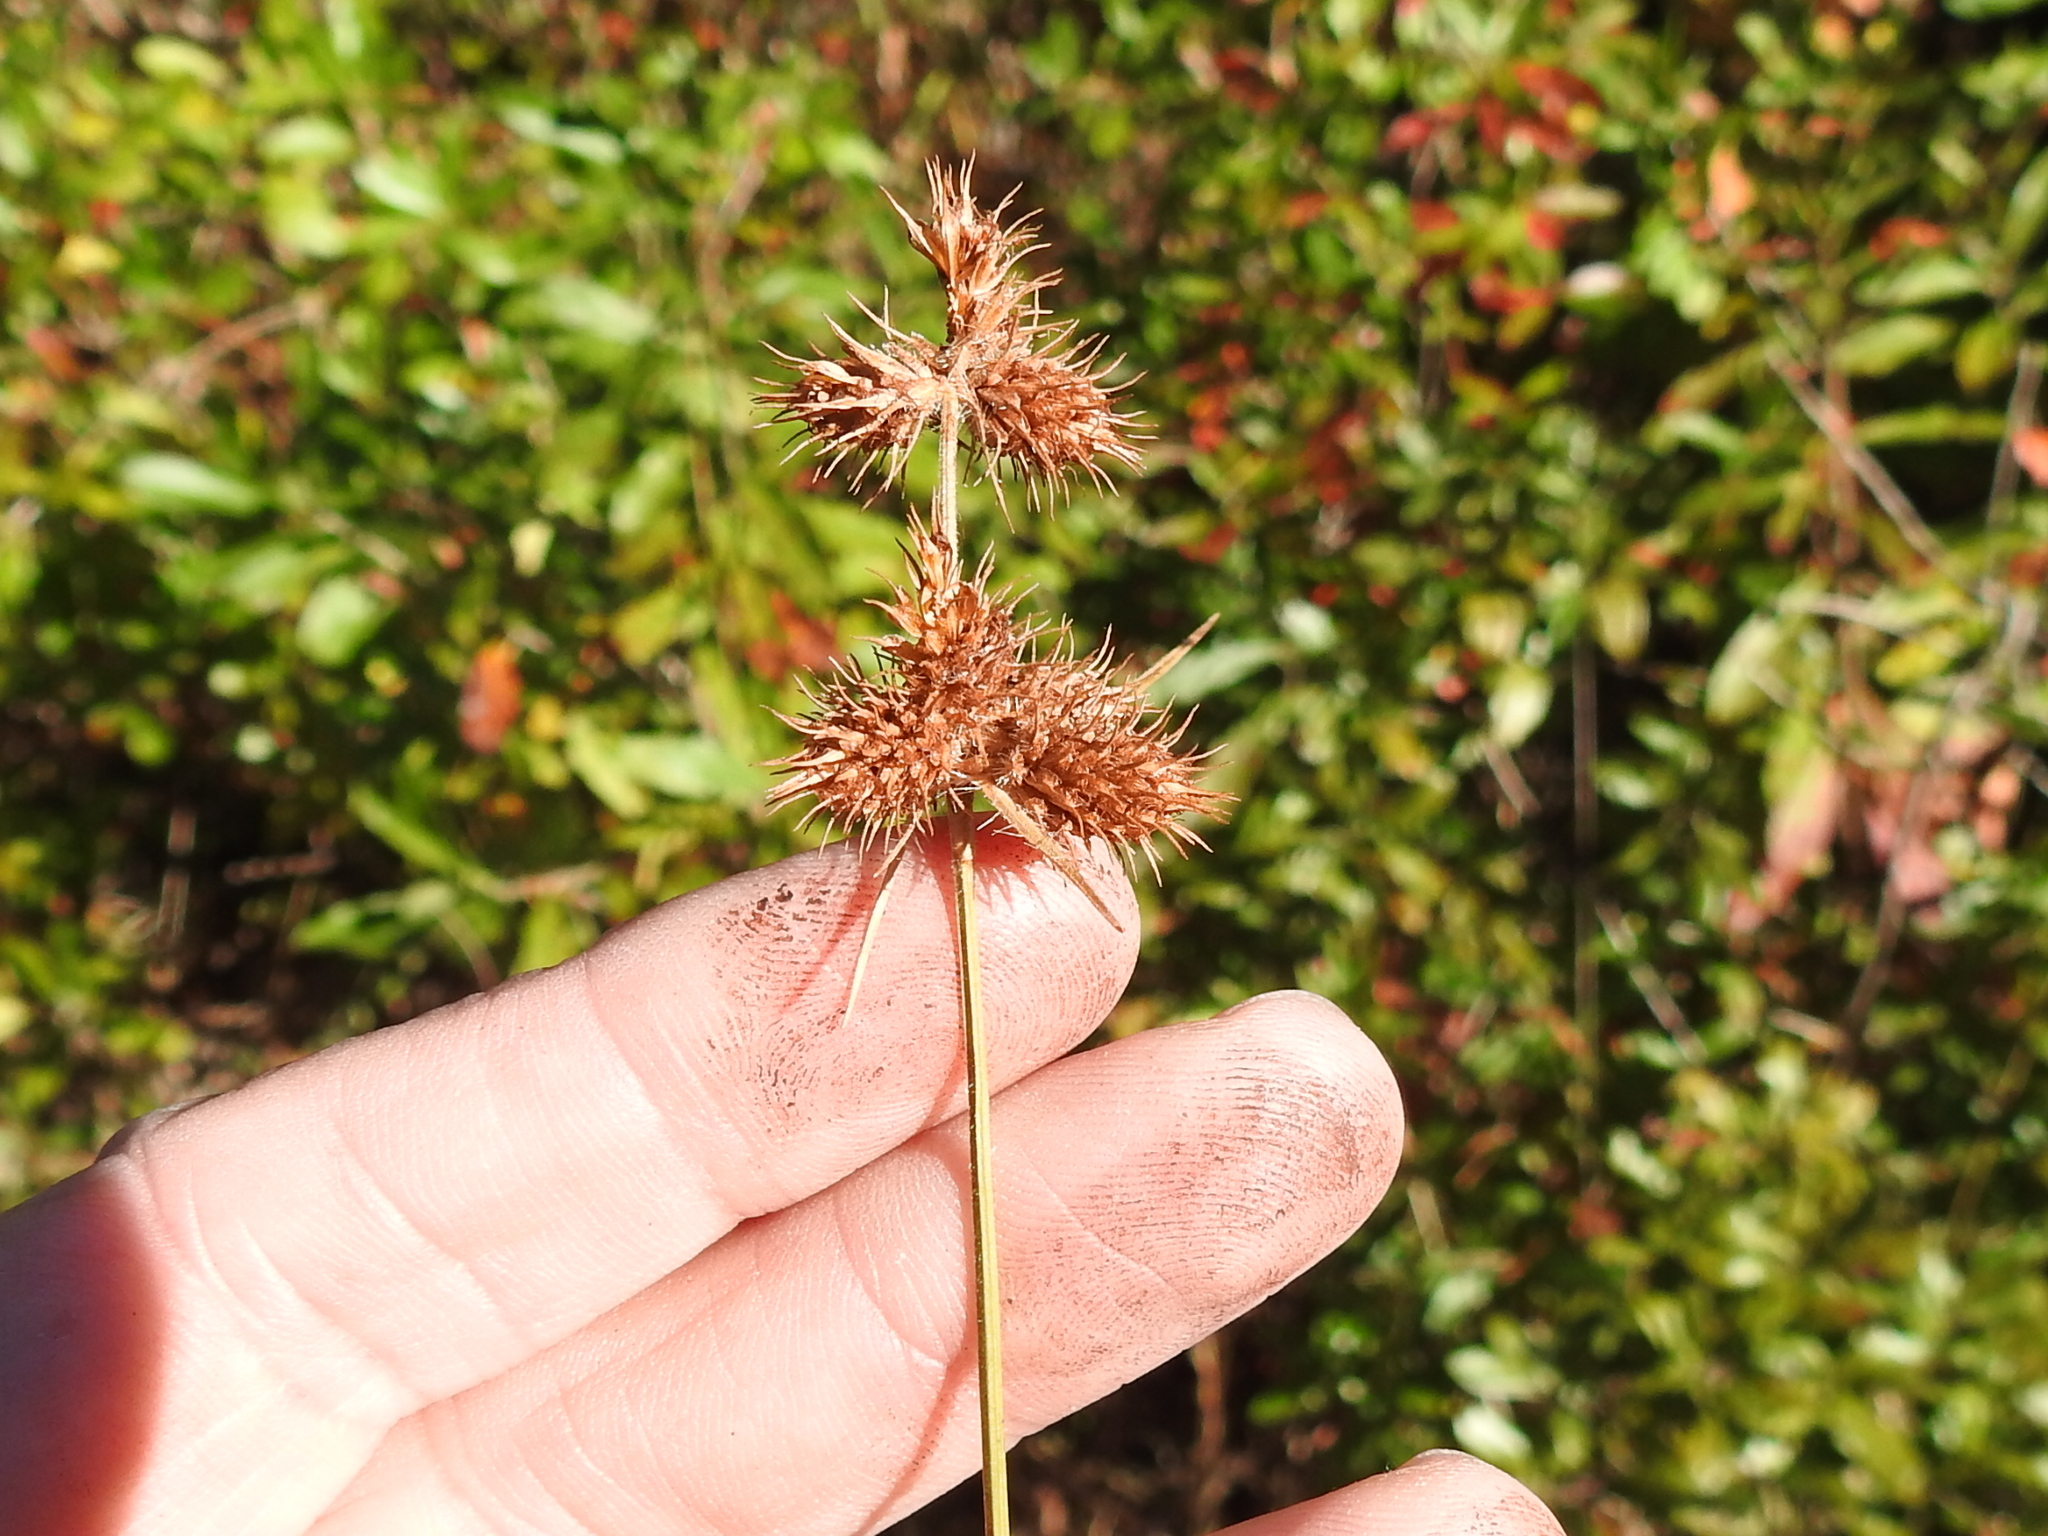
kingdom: Plantae
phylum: Tracheophyta
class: Liliopsida
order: Poales
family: Cyperaceae
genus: Fuirena
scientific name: Fuirena squarrosa
